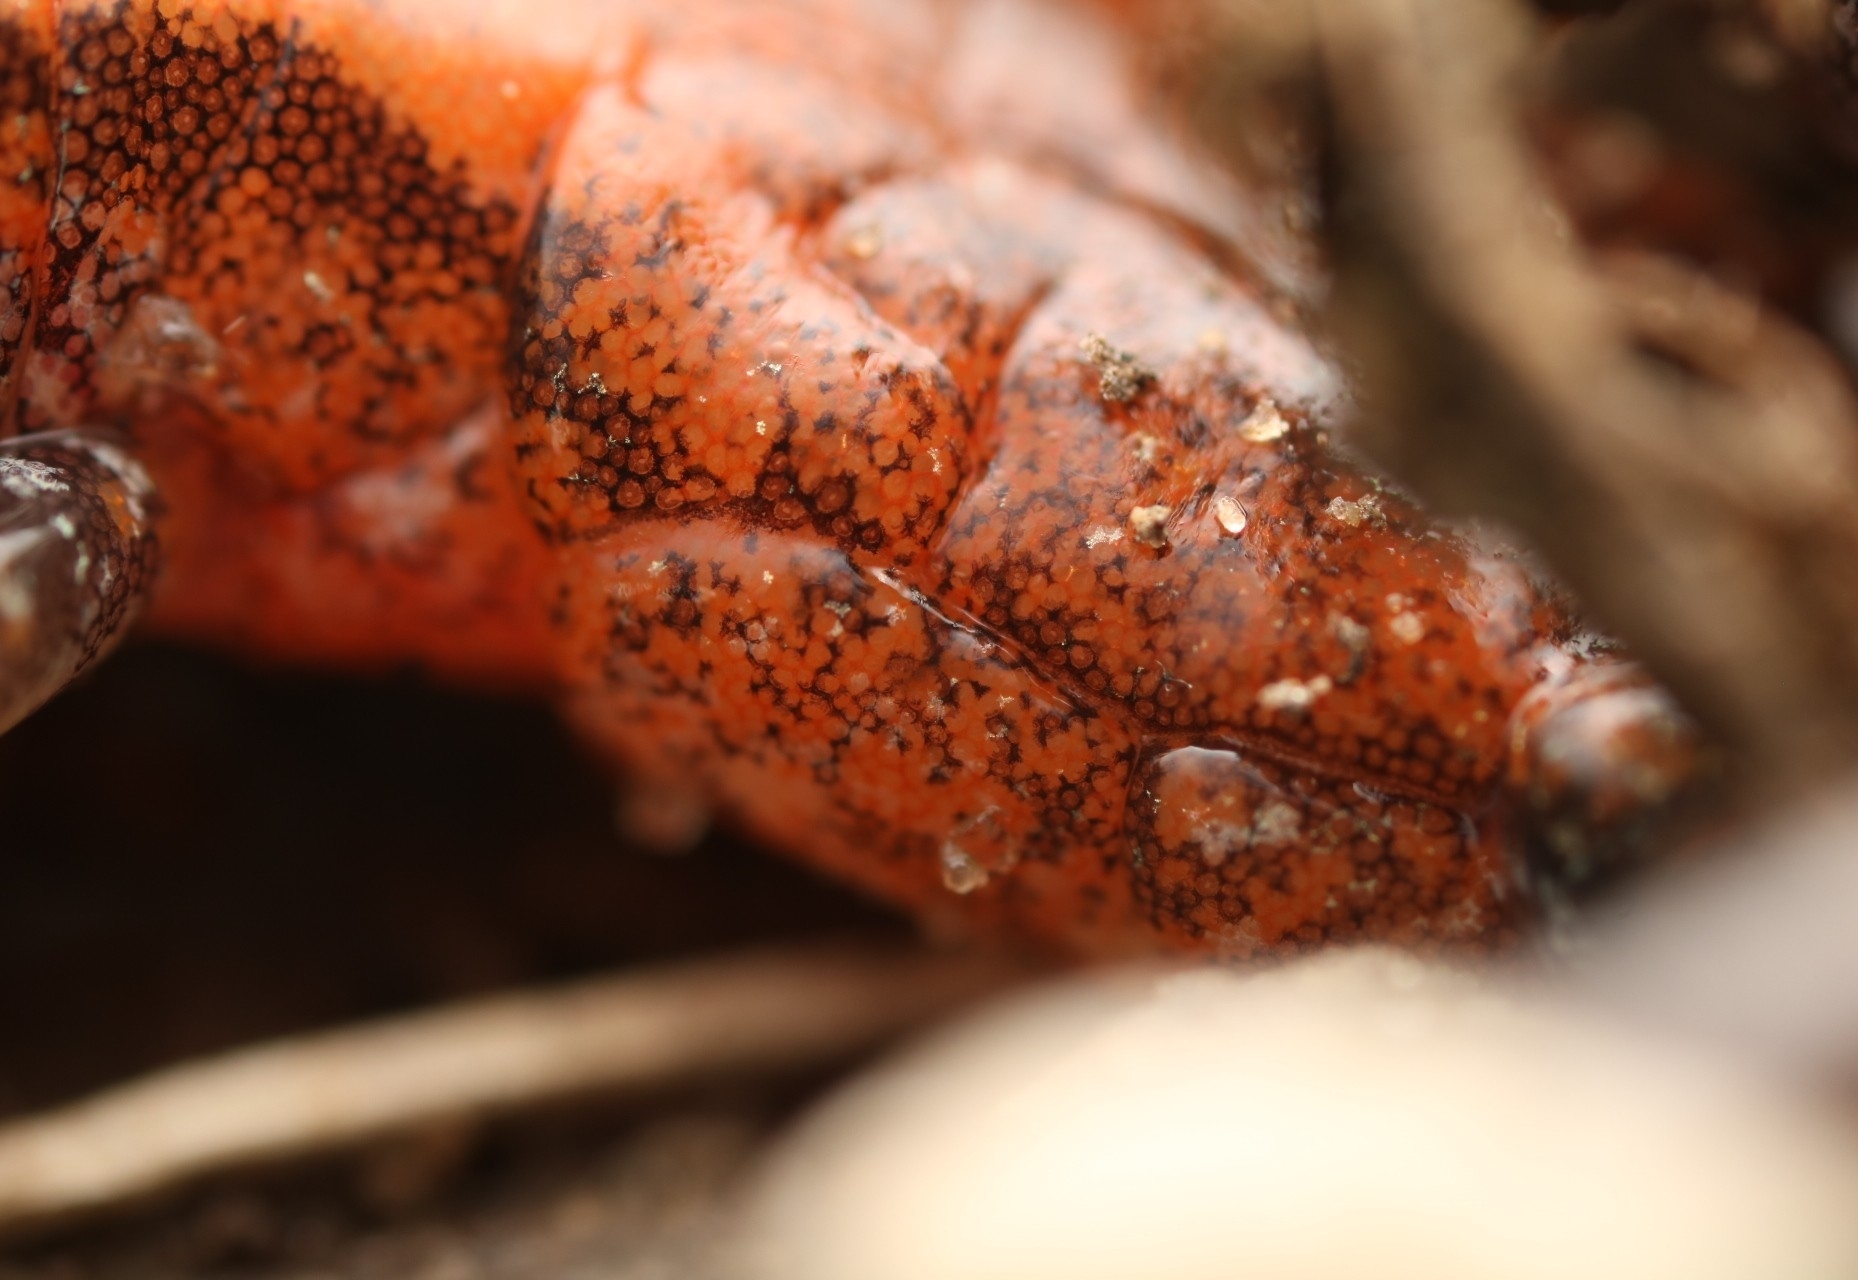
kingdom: Animalia
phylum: Chordata
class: Amphibia
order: Caudata
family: Plethodontidae
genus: Plethodon
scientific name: Plethodon cinereus
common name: Redback salamander
